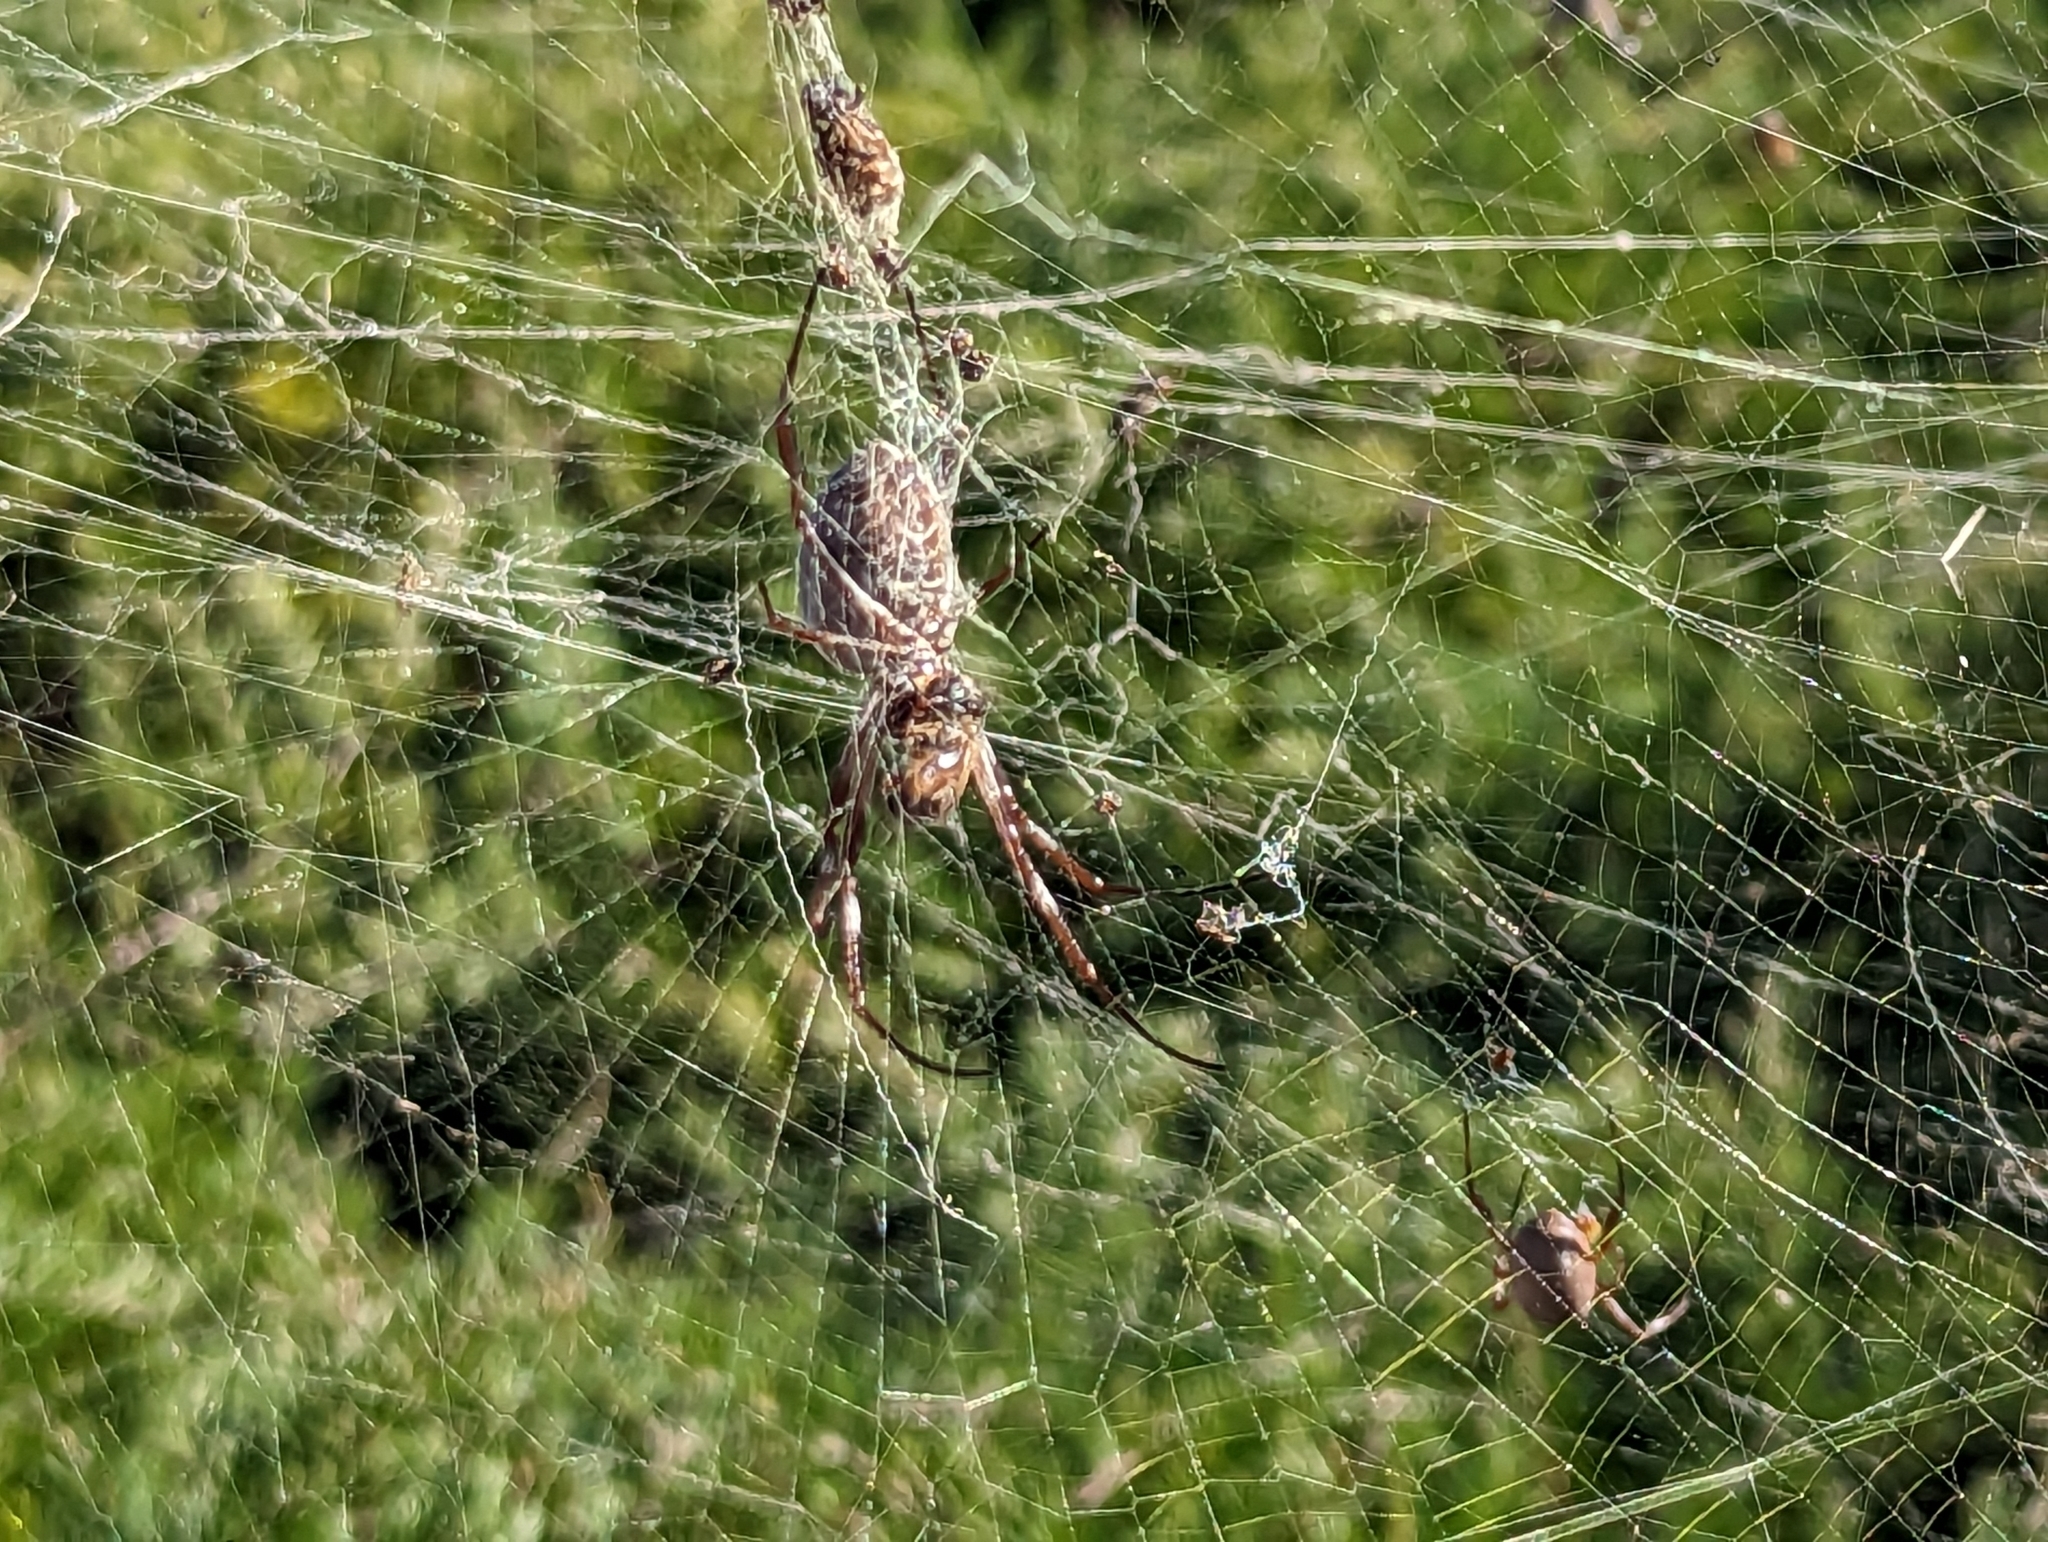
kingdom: Animalia
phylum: Arthropoda
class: Arachnida
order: Araneae
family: Araneidae
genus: Trichonephila
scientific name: Trichonephila edulis
